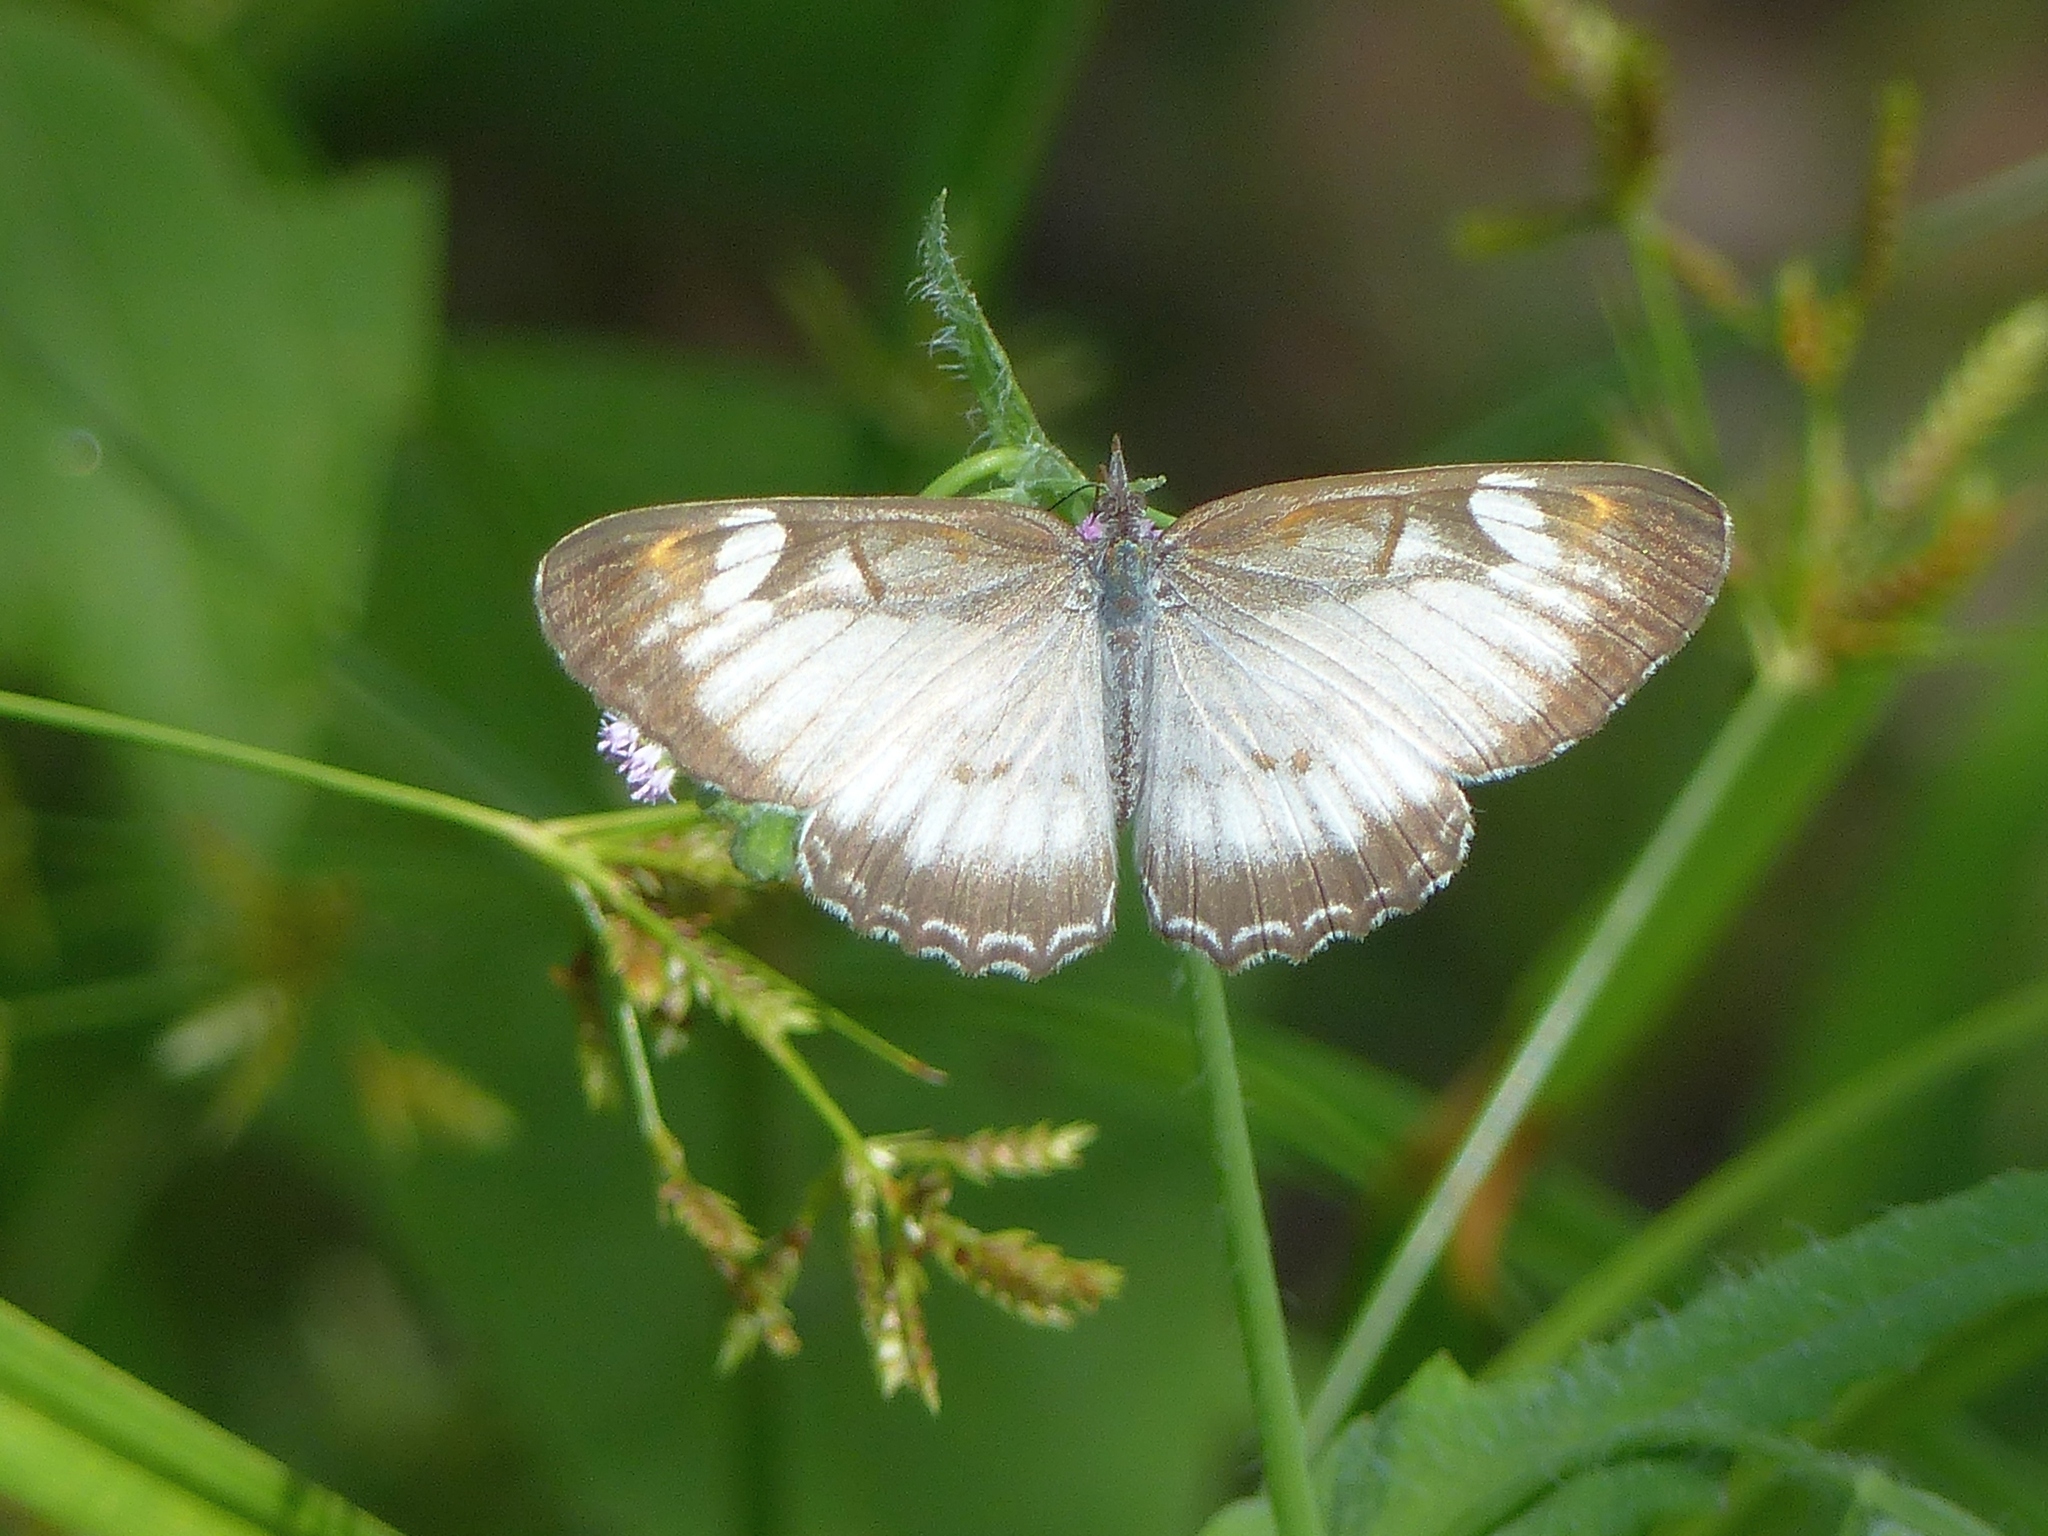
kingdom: Animalia
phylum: Arthropoda
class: Insecta
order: Lepidoptera
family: Nymphalidae
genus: Mestra
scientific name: Mestra hersilia
